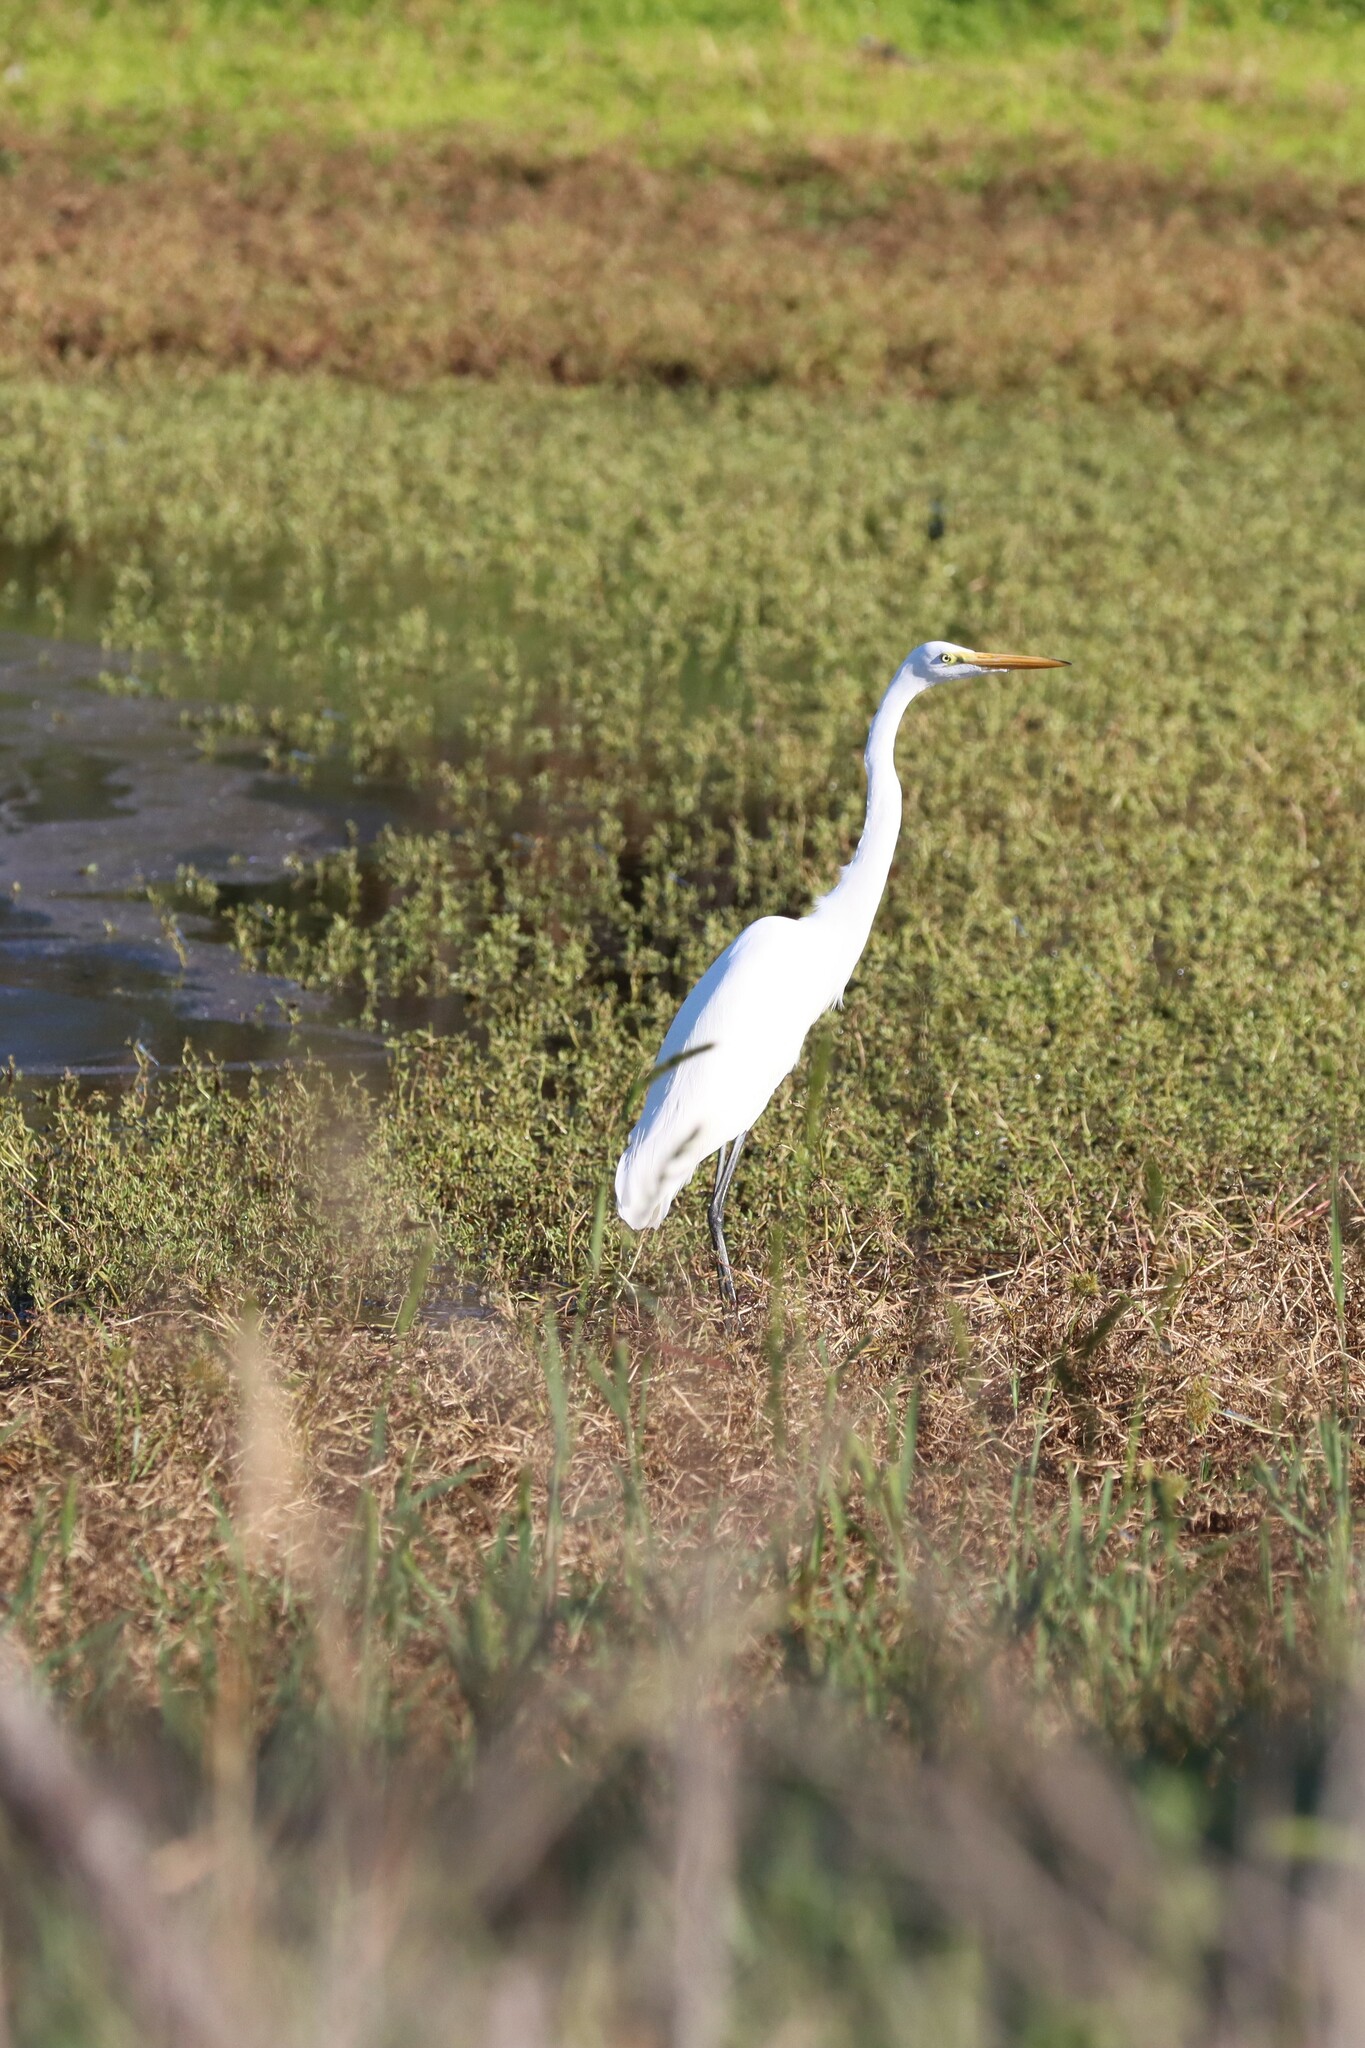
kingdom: Animalia
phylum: Chordata
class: Aves
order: Pelecaniformes
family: Ardeidae
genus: Ardea
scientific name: Ardea alba
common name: Great egret
